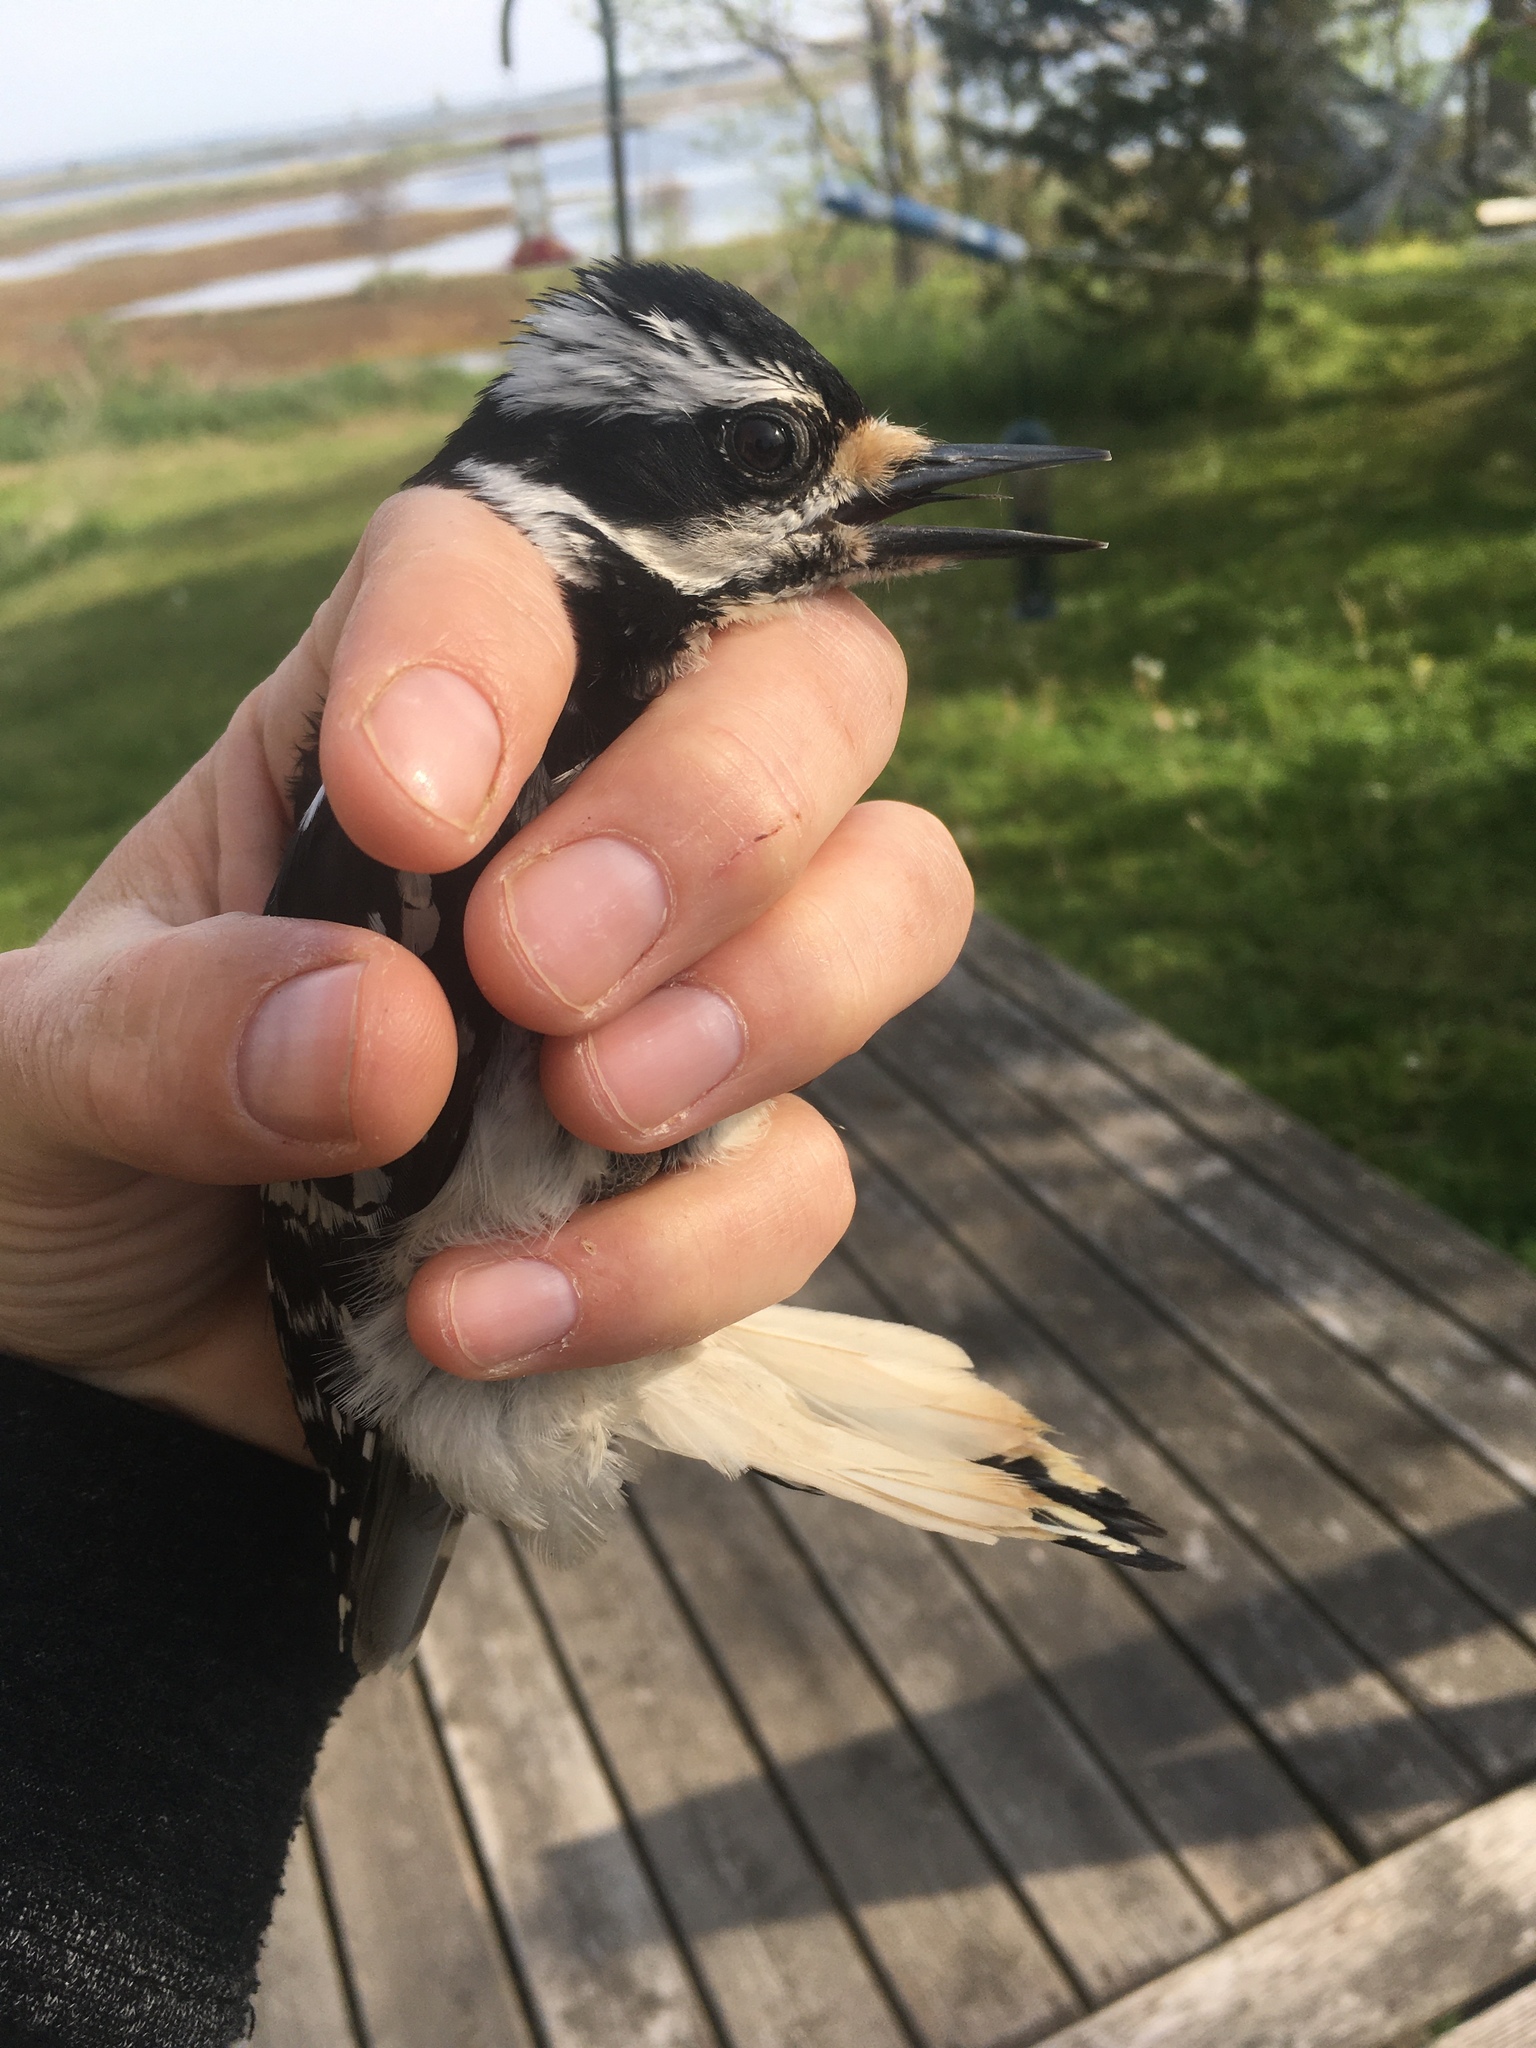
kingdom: Animalia
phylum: Chordata
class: Aves
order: Piciformes
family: Picidae
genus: Leuconotopicus
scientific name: Leuconotopicus villosus
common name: Hairy woodpecker
